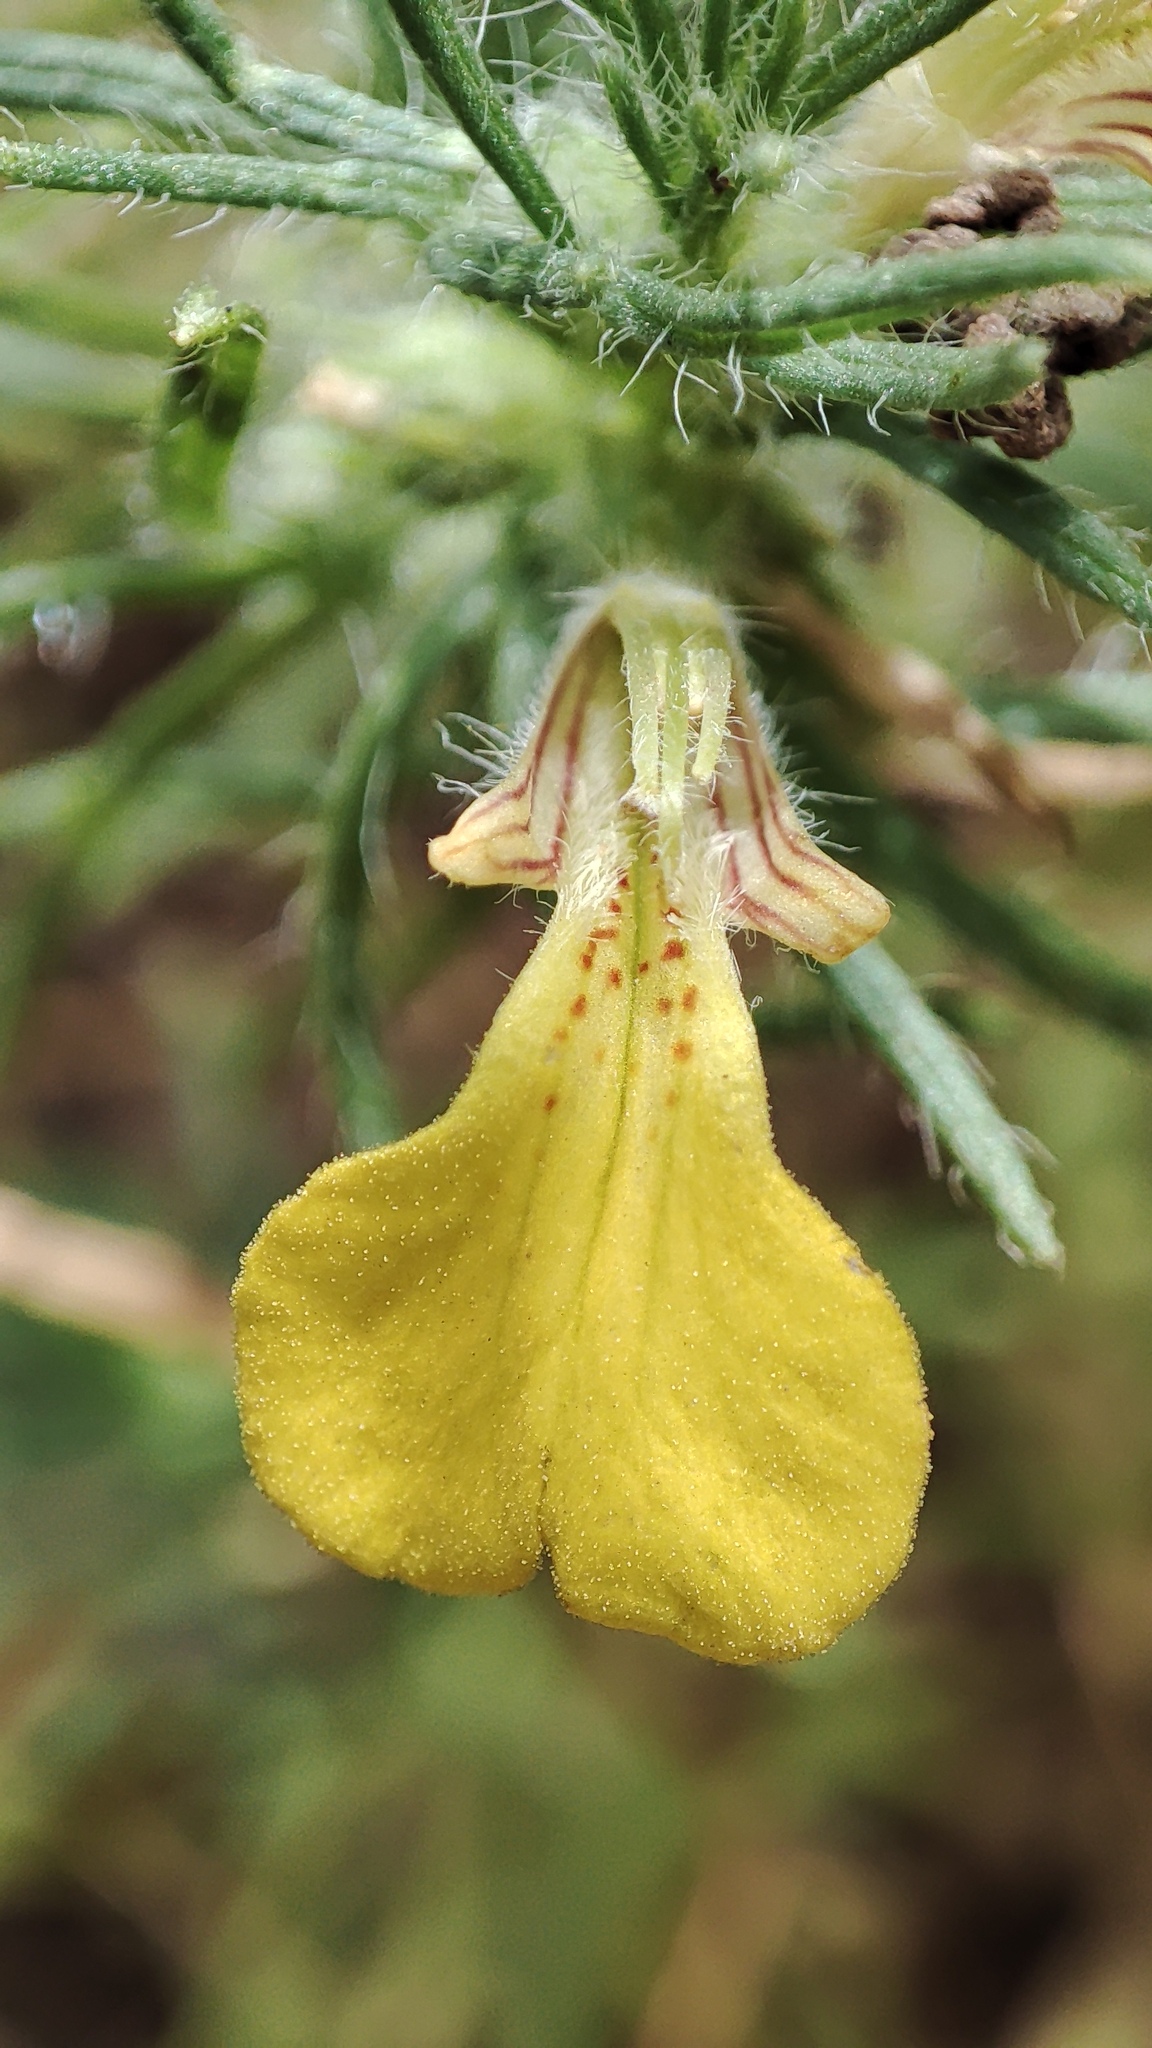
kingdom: Plantae
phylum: Tracheophyta
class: Magnoliopsida
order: Lamiales
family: Lamiaceae
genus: Ajuga
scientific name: Ajuga chamaepitys
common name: Ground-pine
